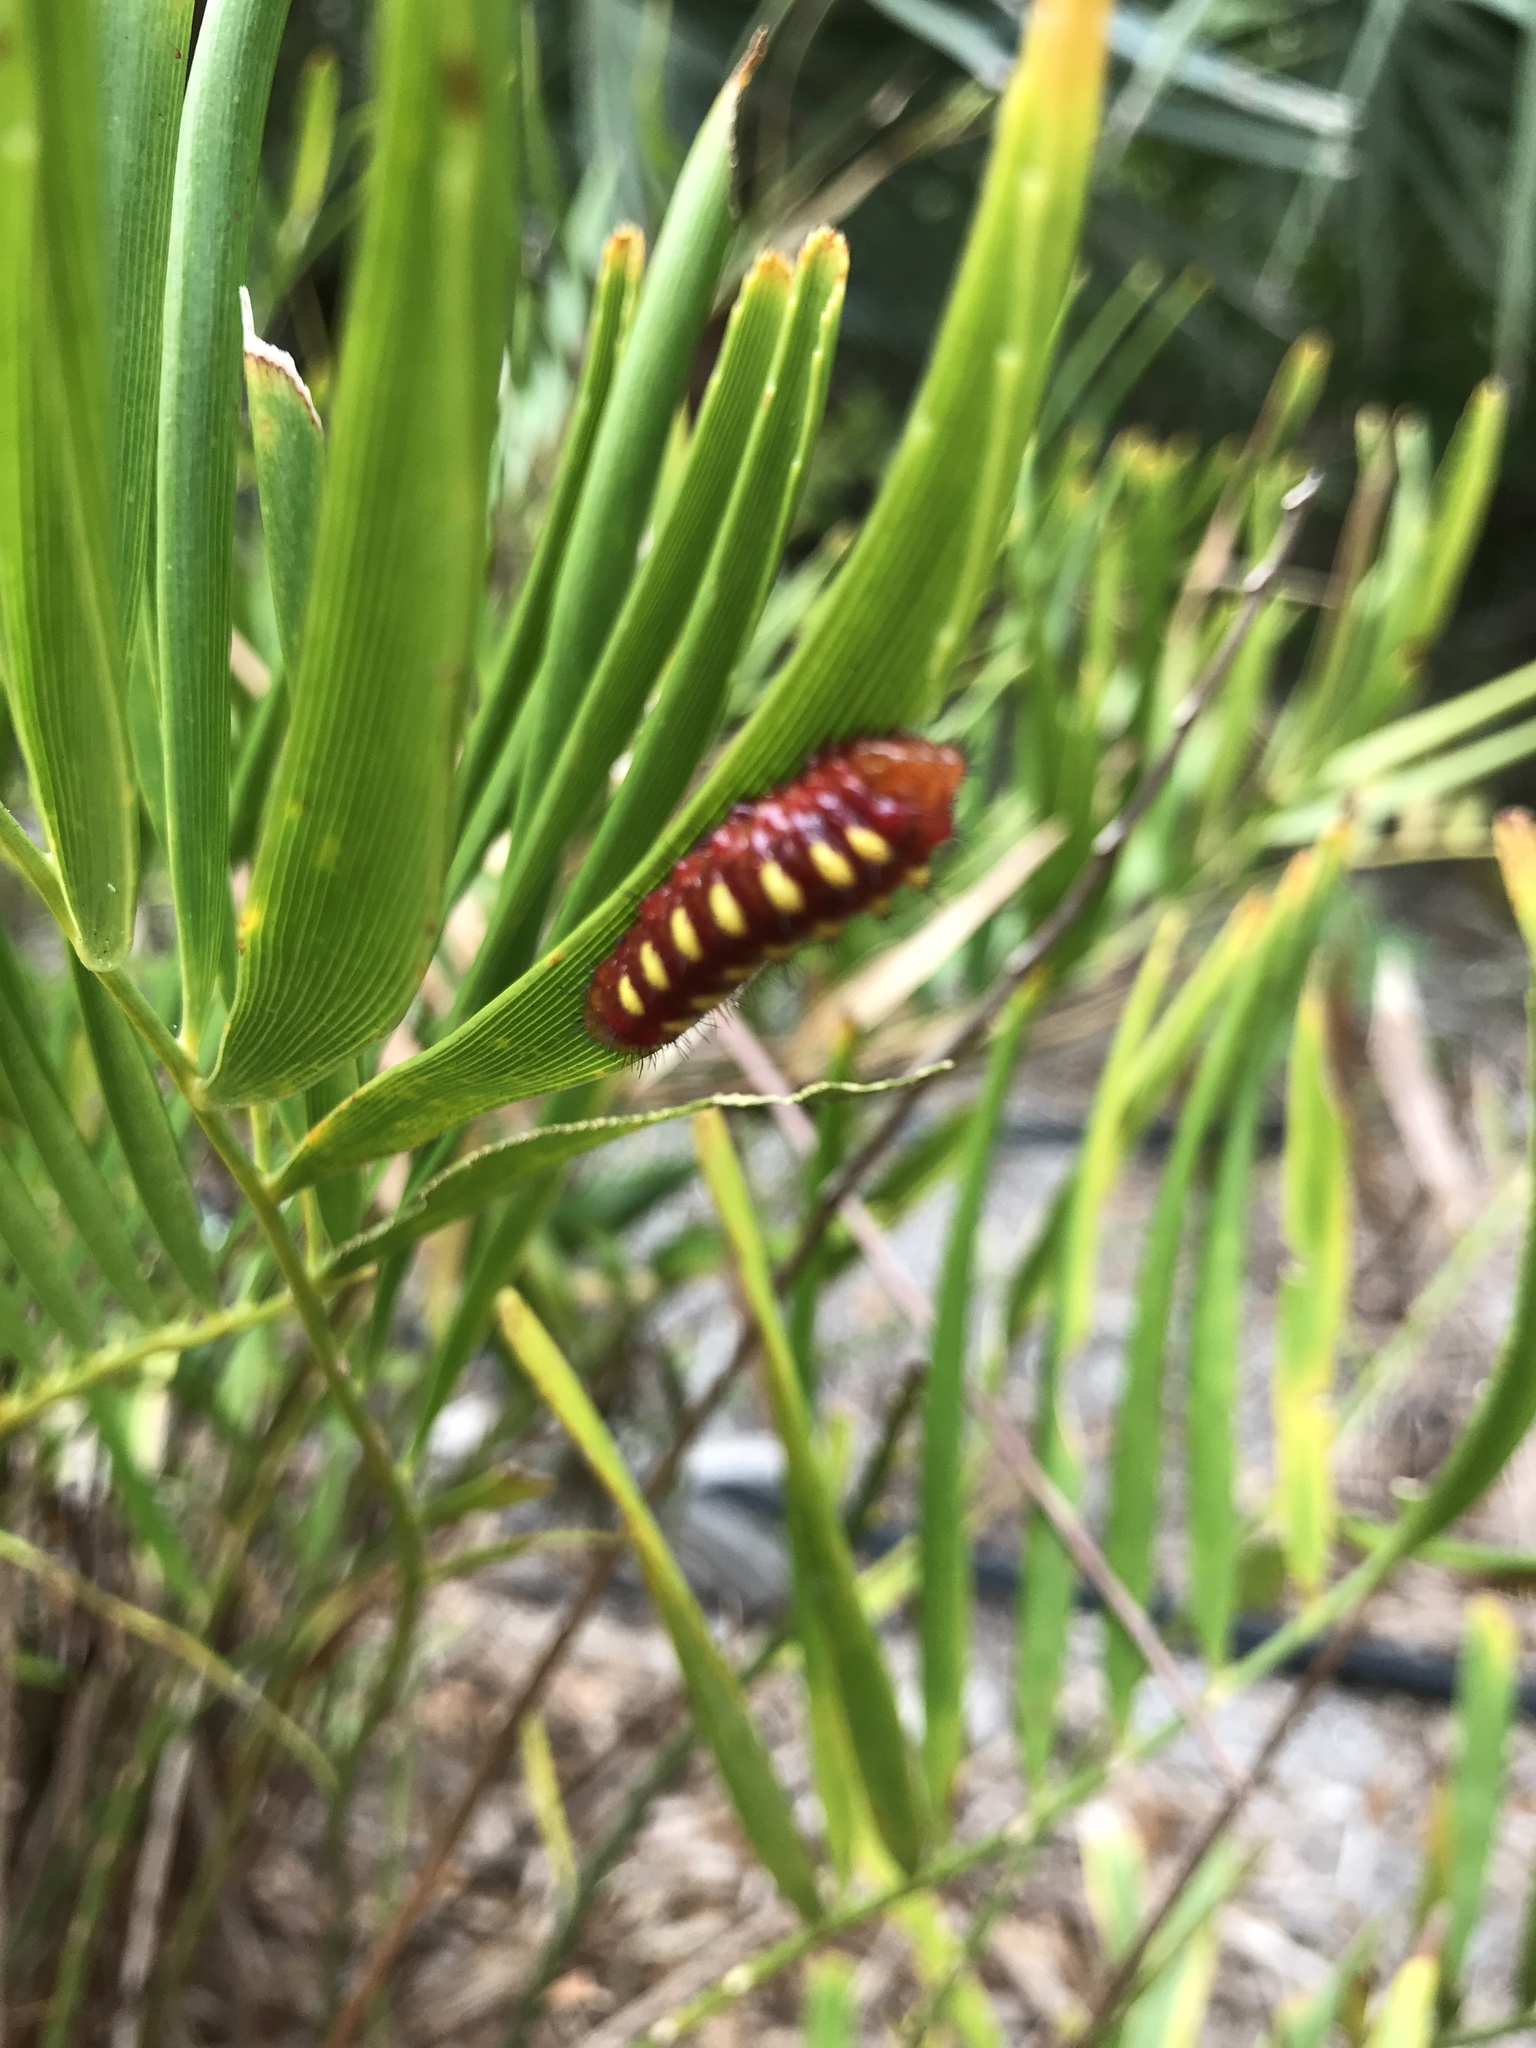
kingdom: Animalia
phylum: Arthropoda
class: Insecta
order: Lepidoptera
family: Lycaenidae
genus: Eumaeus
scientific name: Eumaeus atala
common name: Atala
